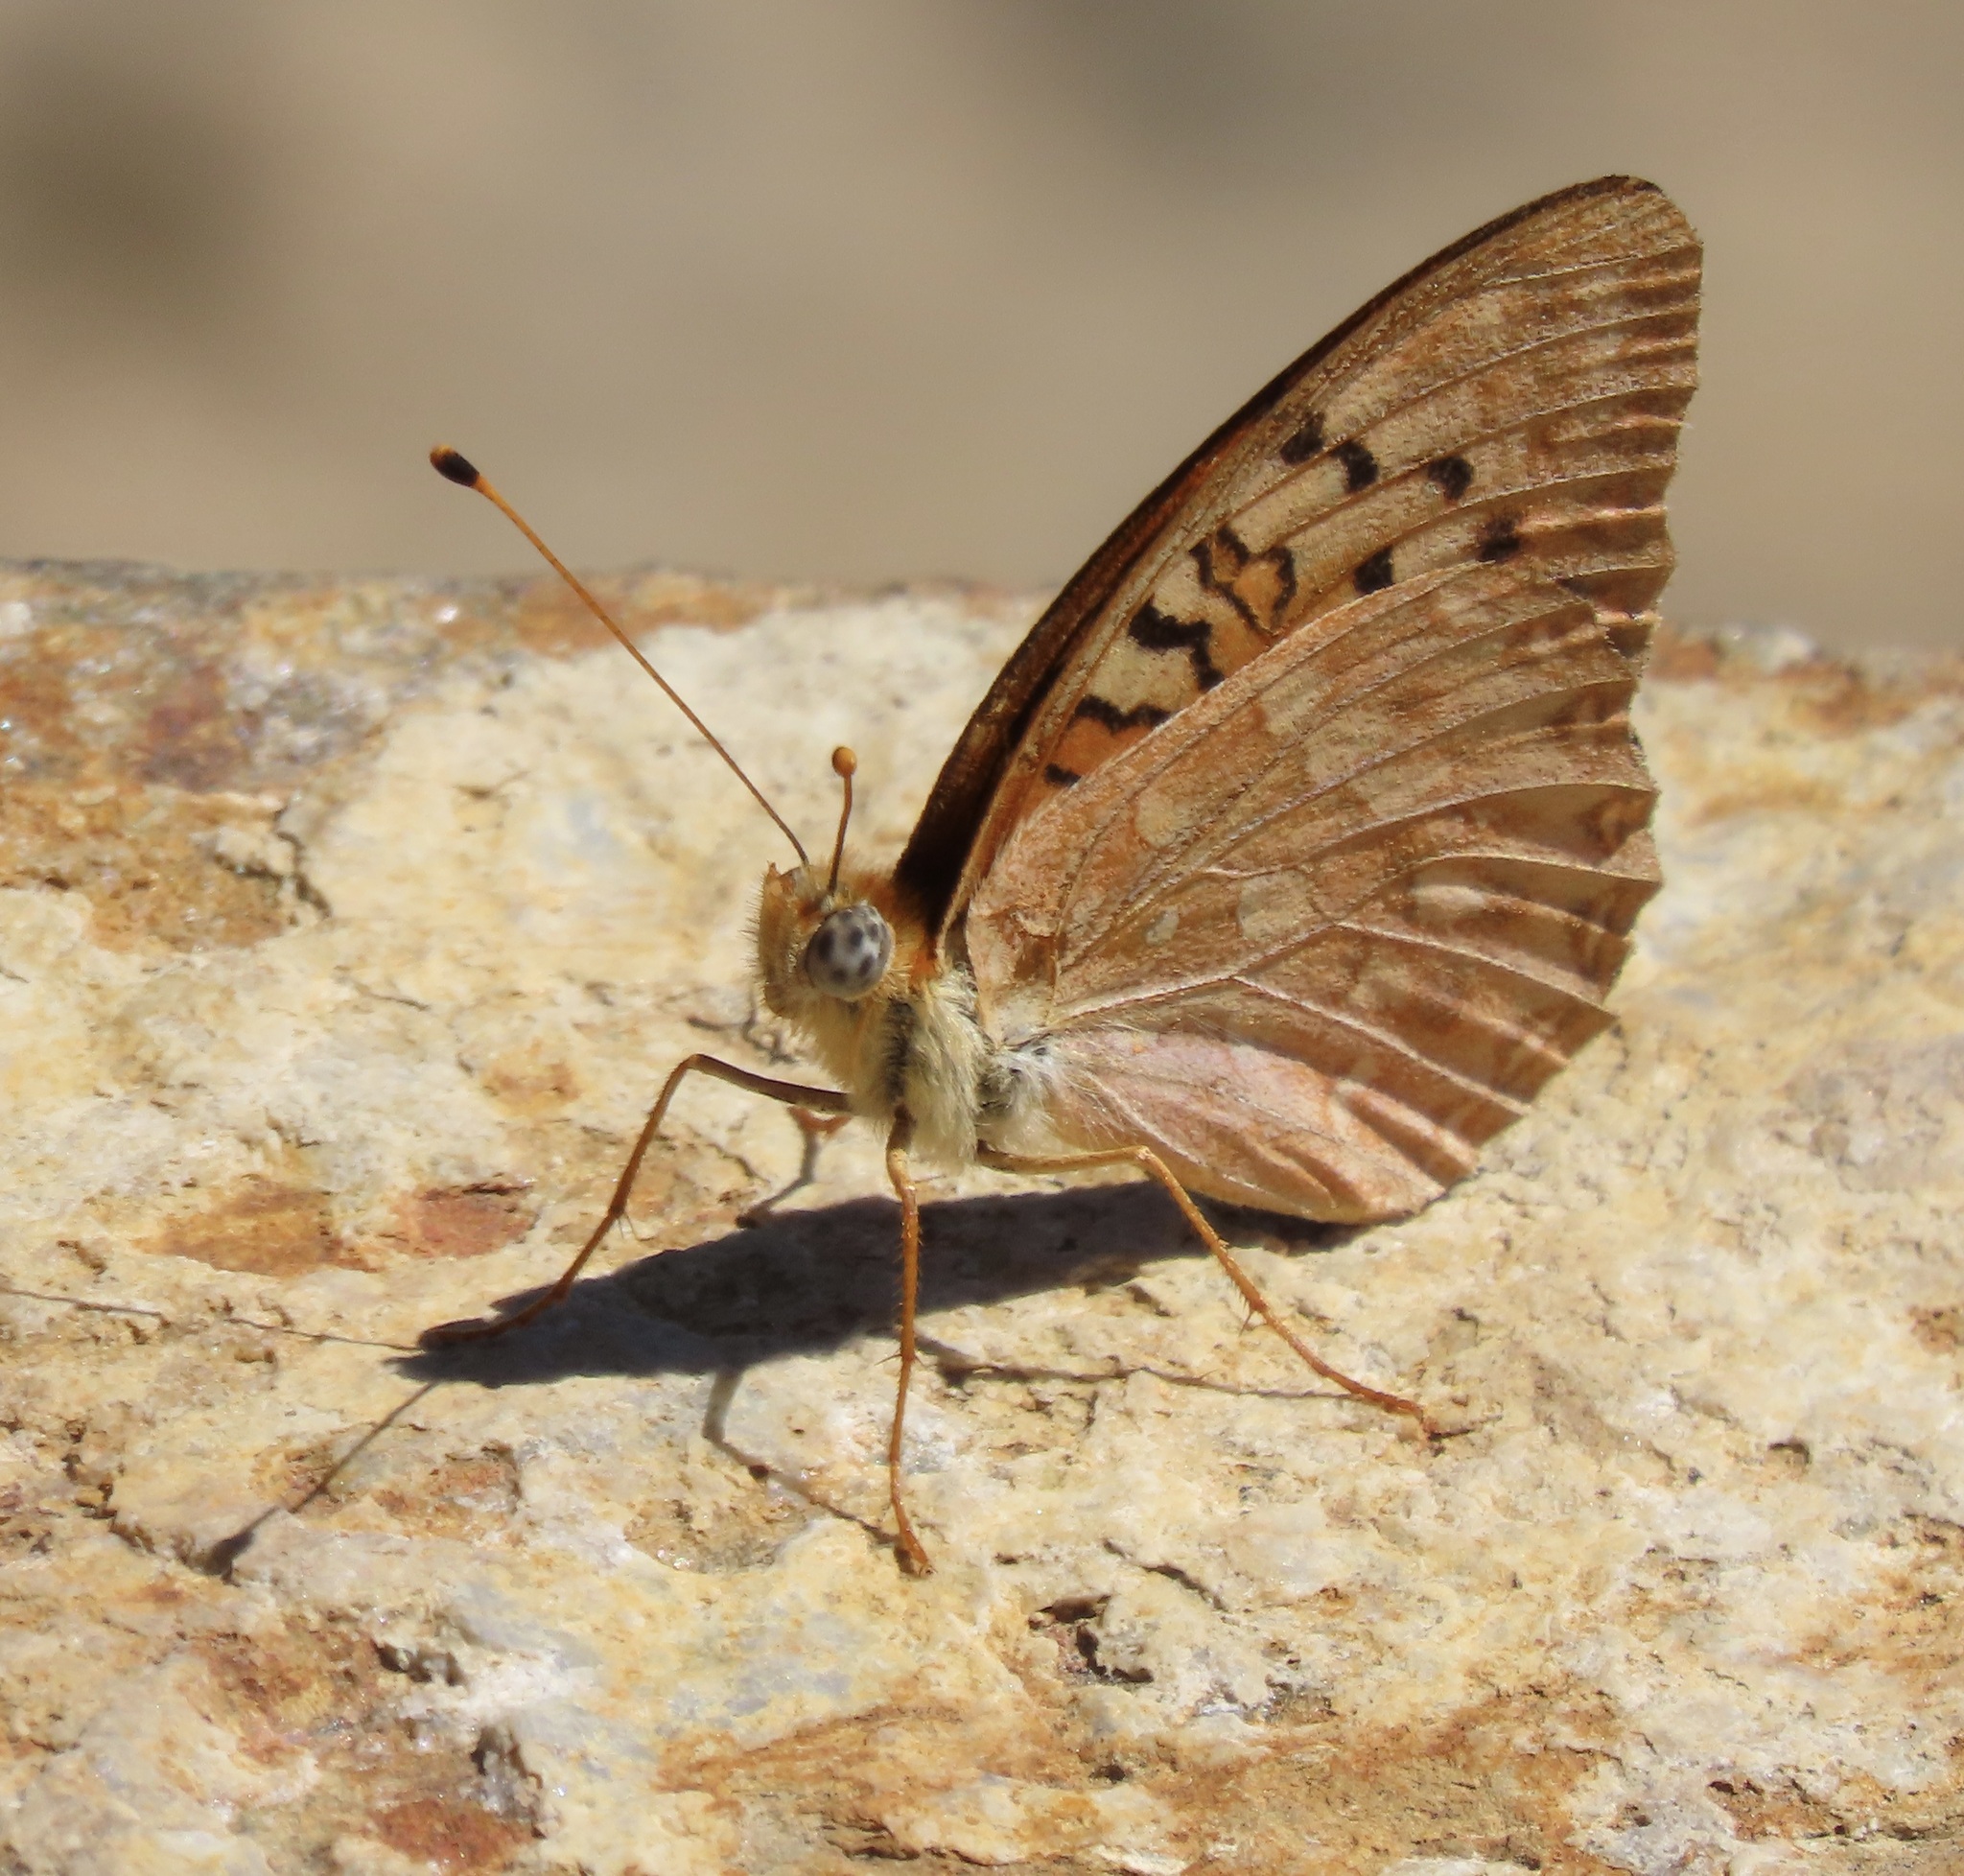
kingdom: Animalia
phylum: Arthropoda
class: Insecta
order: Lepidoptera
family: Nymphalidae
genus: Speyeria
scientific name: Speyeria adiaste
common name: Unsilvered fritillary
